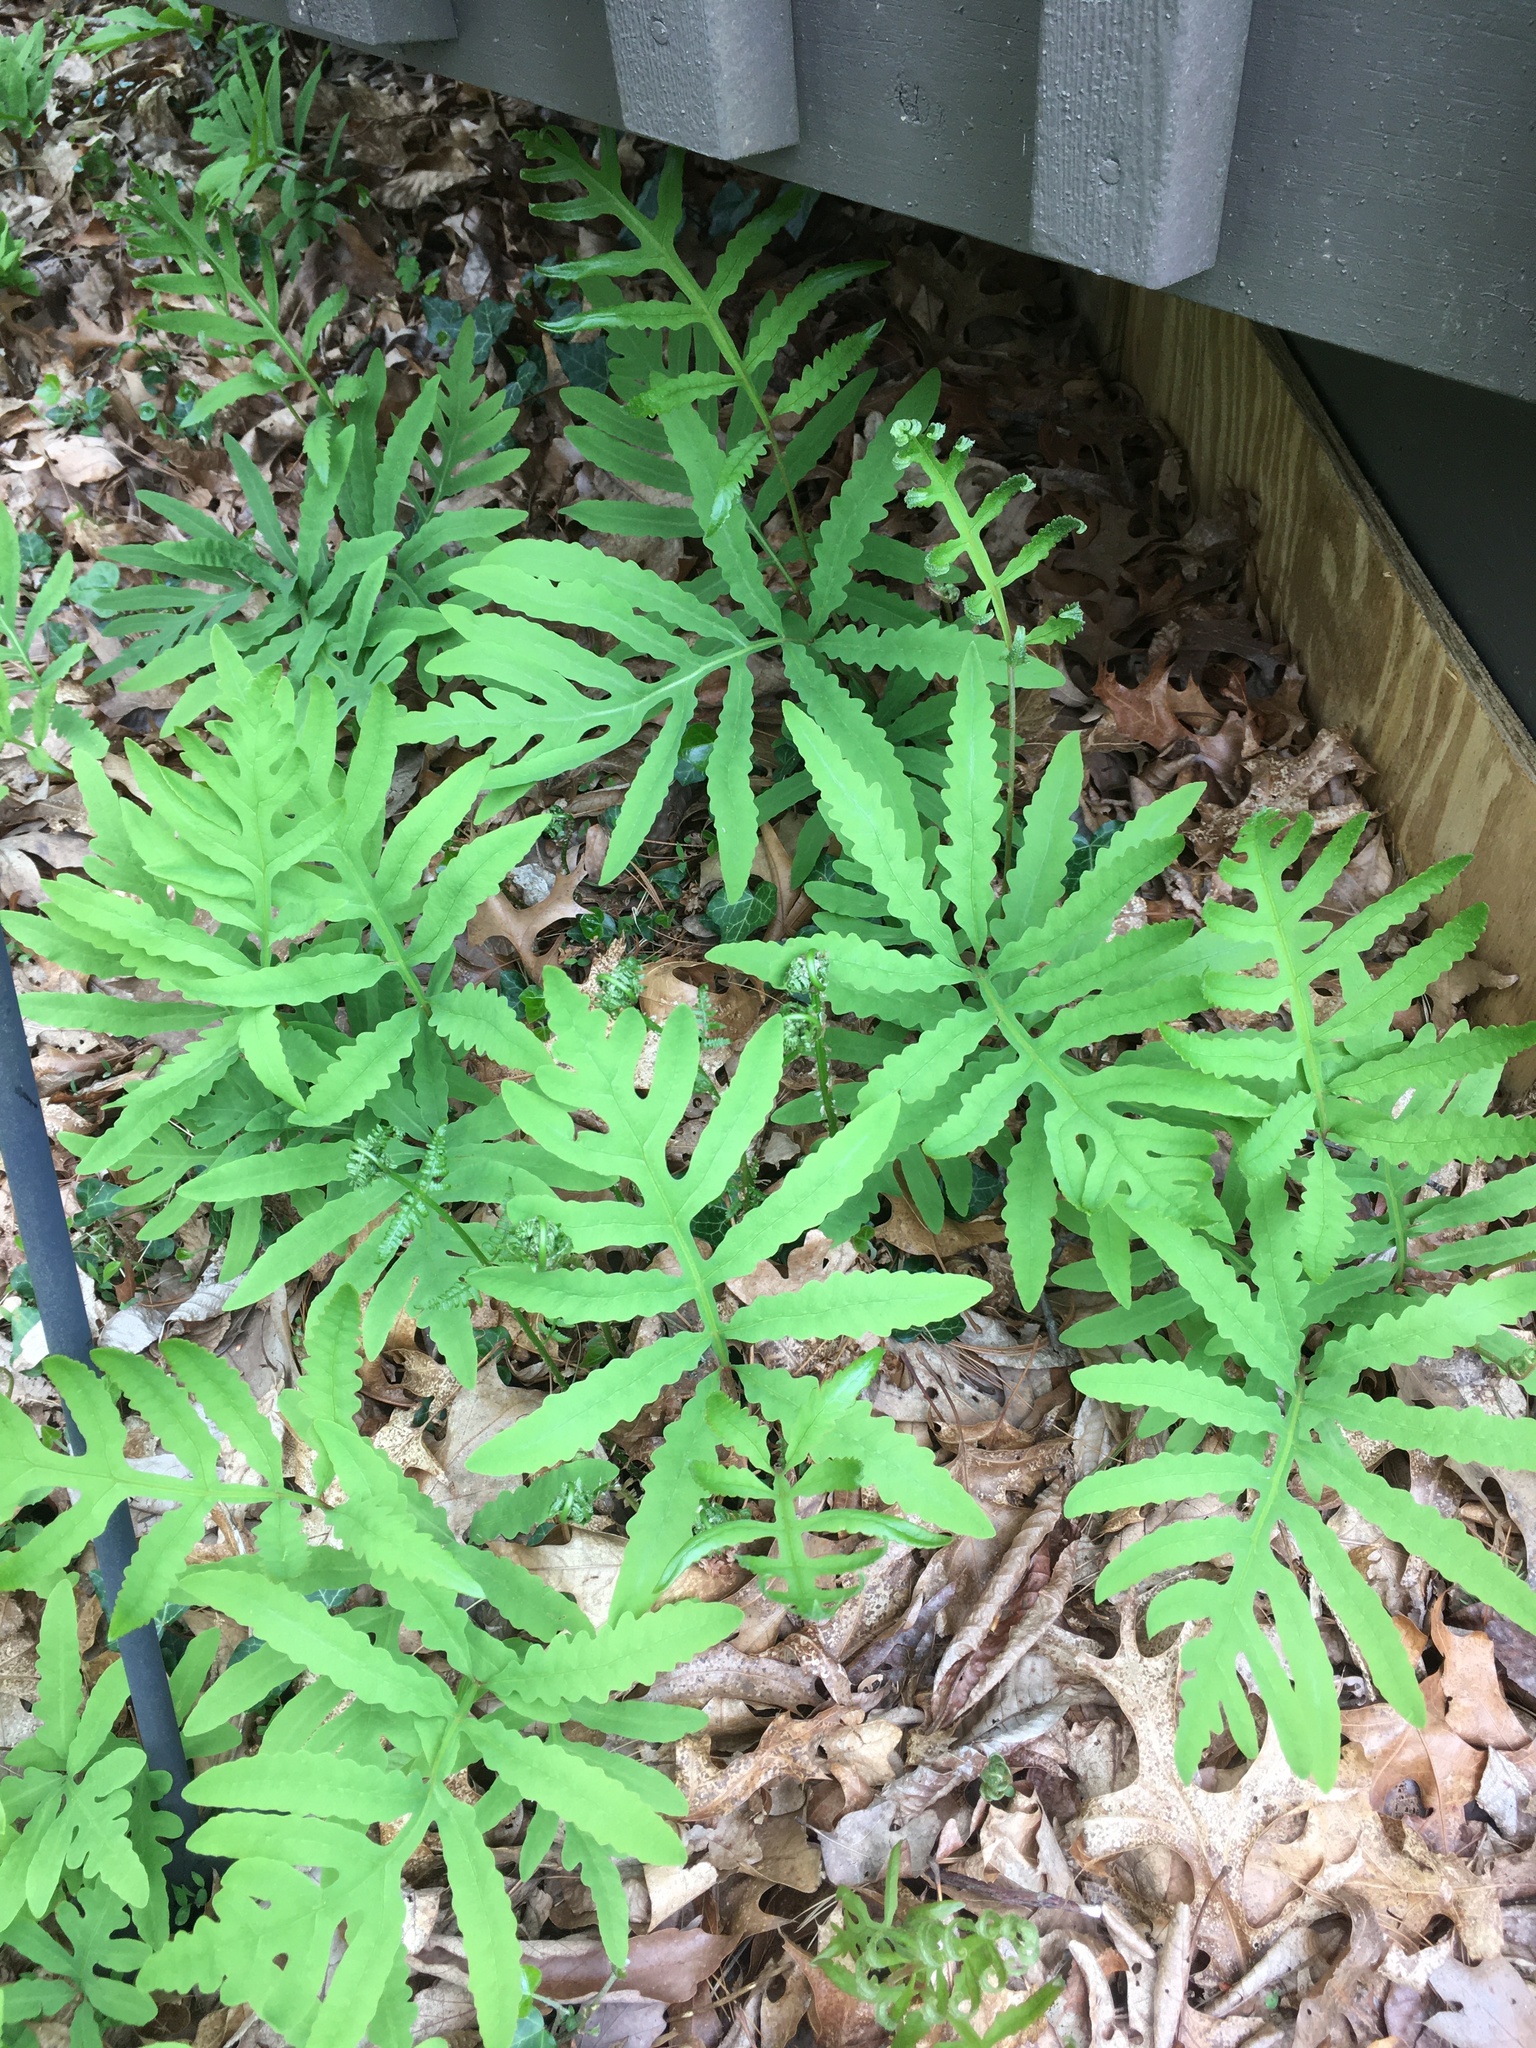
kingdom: Plantae
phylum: Tracheophyta
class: Polypodiopsida
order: Polypodiales
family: Onocleaceae
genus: Onoclea
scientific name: Onoclea sensibilis
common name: Sensitive fern
